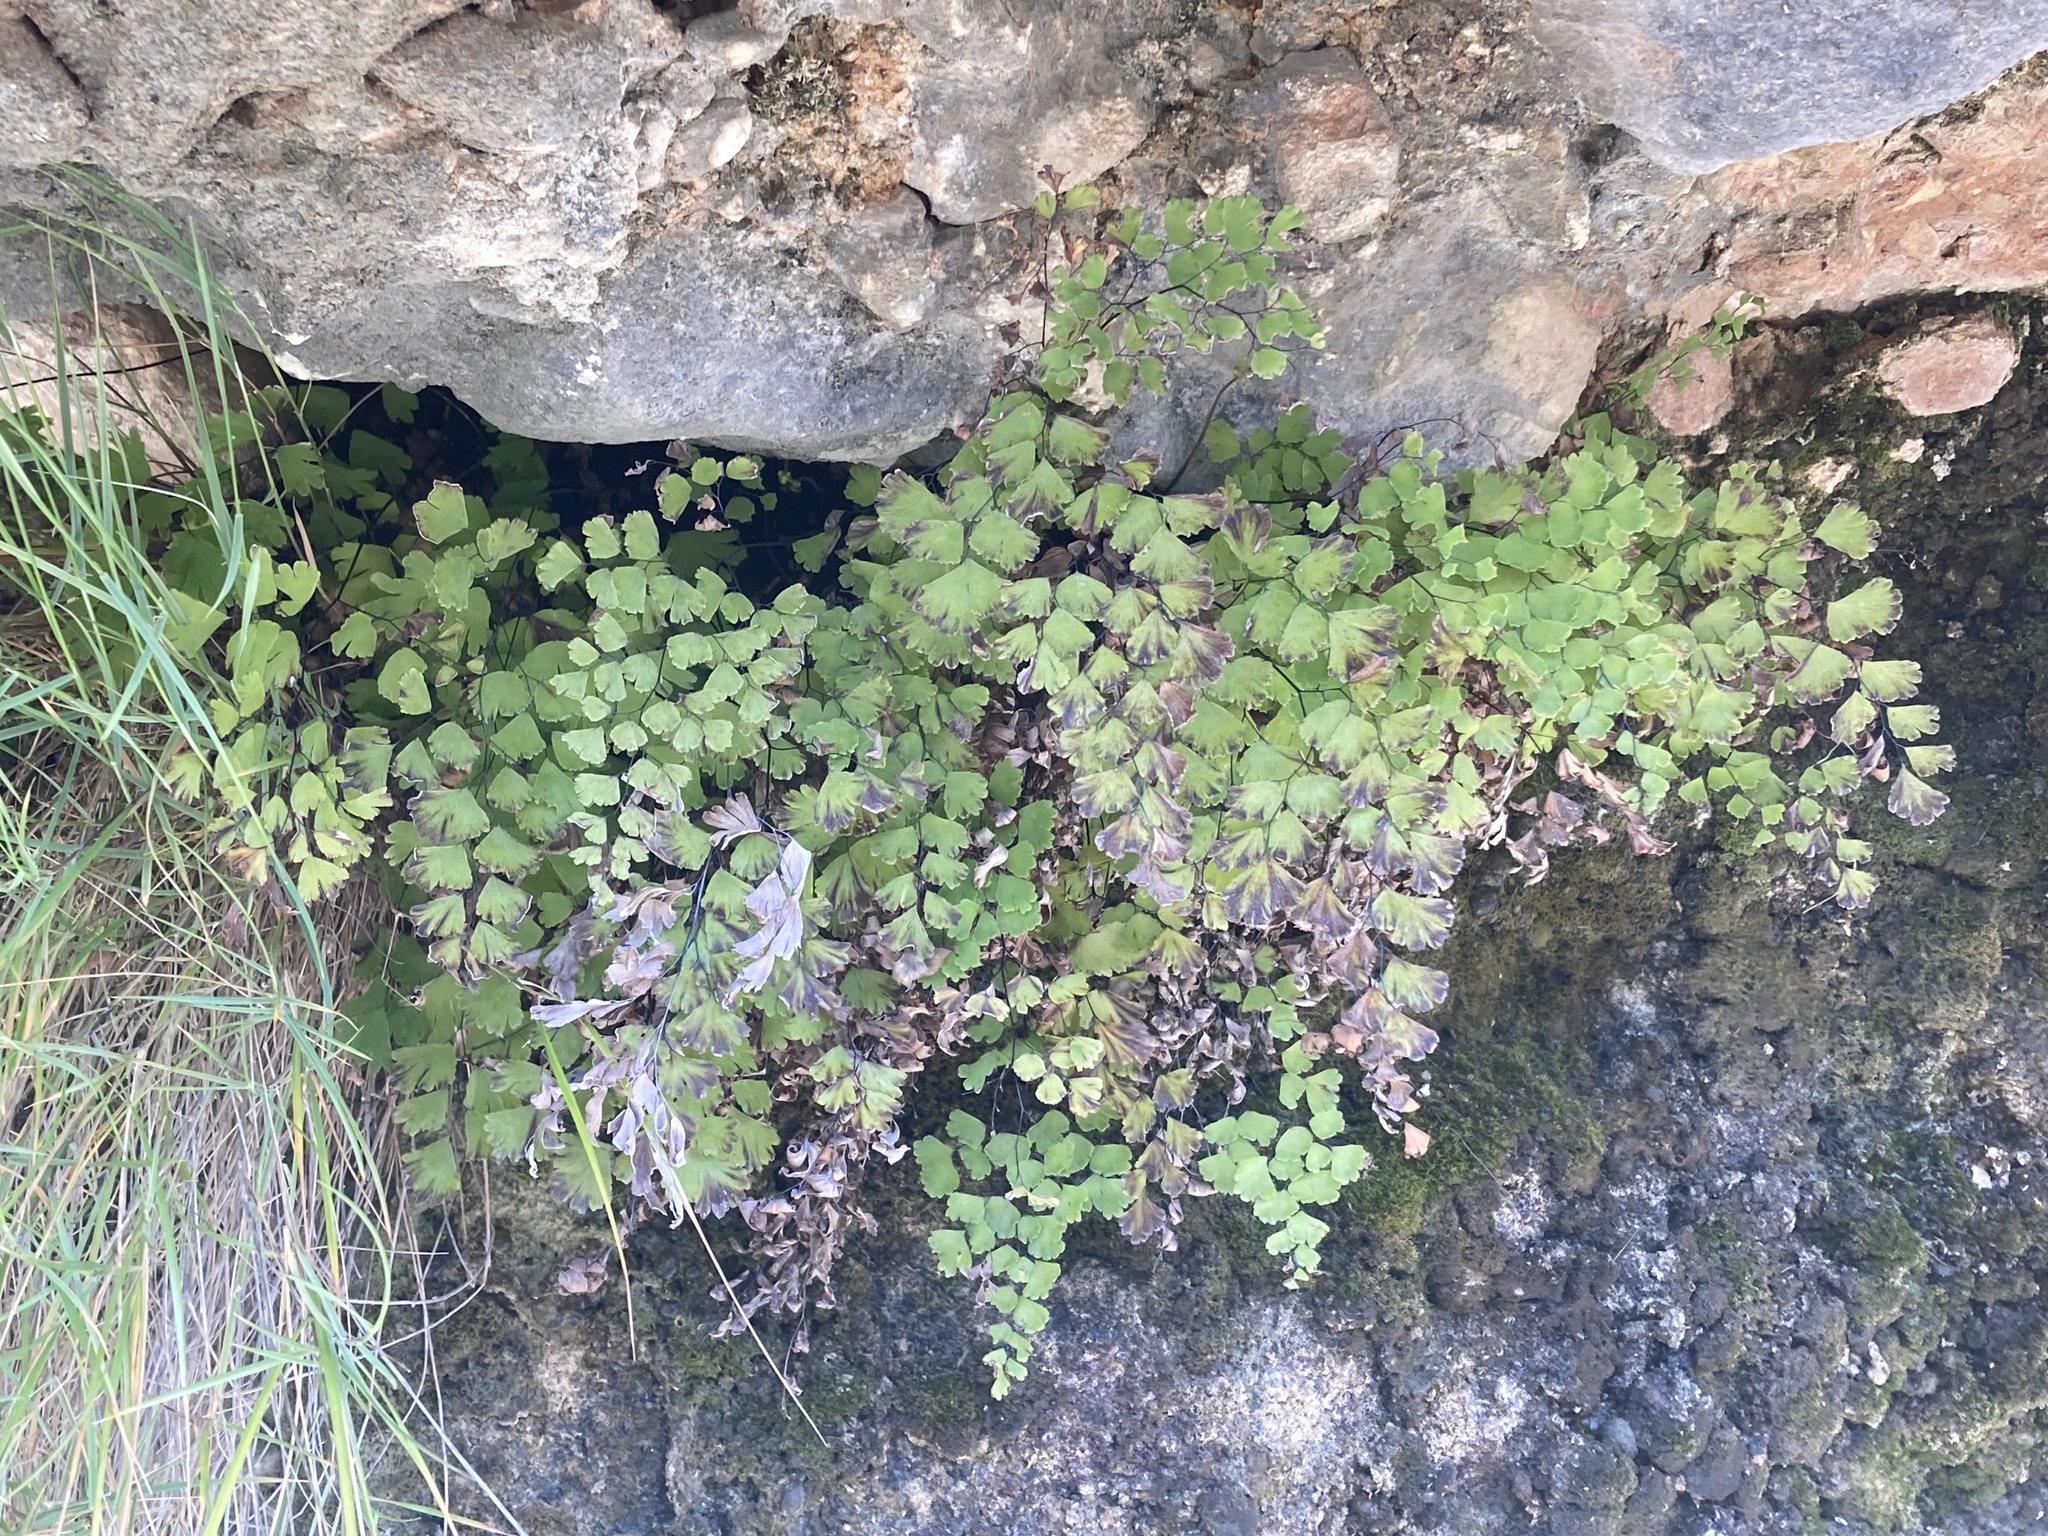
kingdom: Plantae
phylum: Tracheophyta
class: Polypodiopsida
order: Polypodiales
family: Pteridaceae
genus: Adiantum
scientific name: Adiantum capillus-veneris
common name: Maidenhair fern
